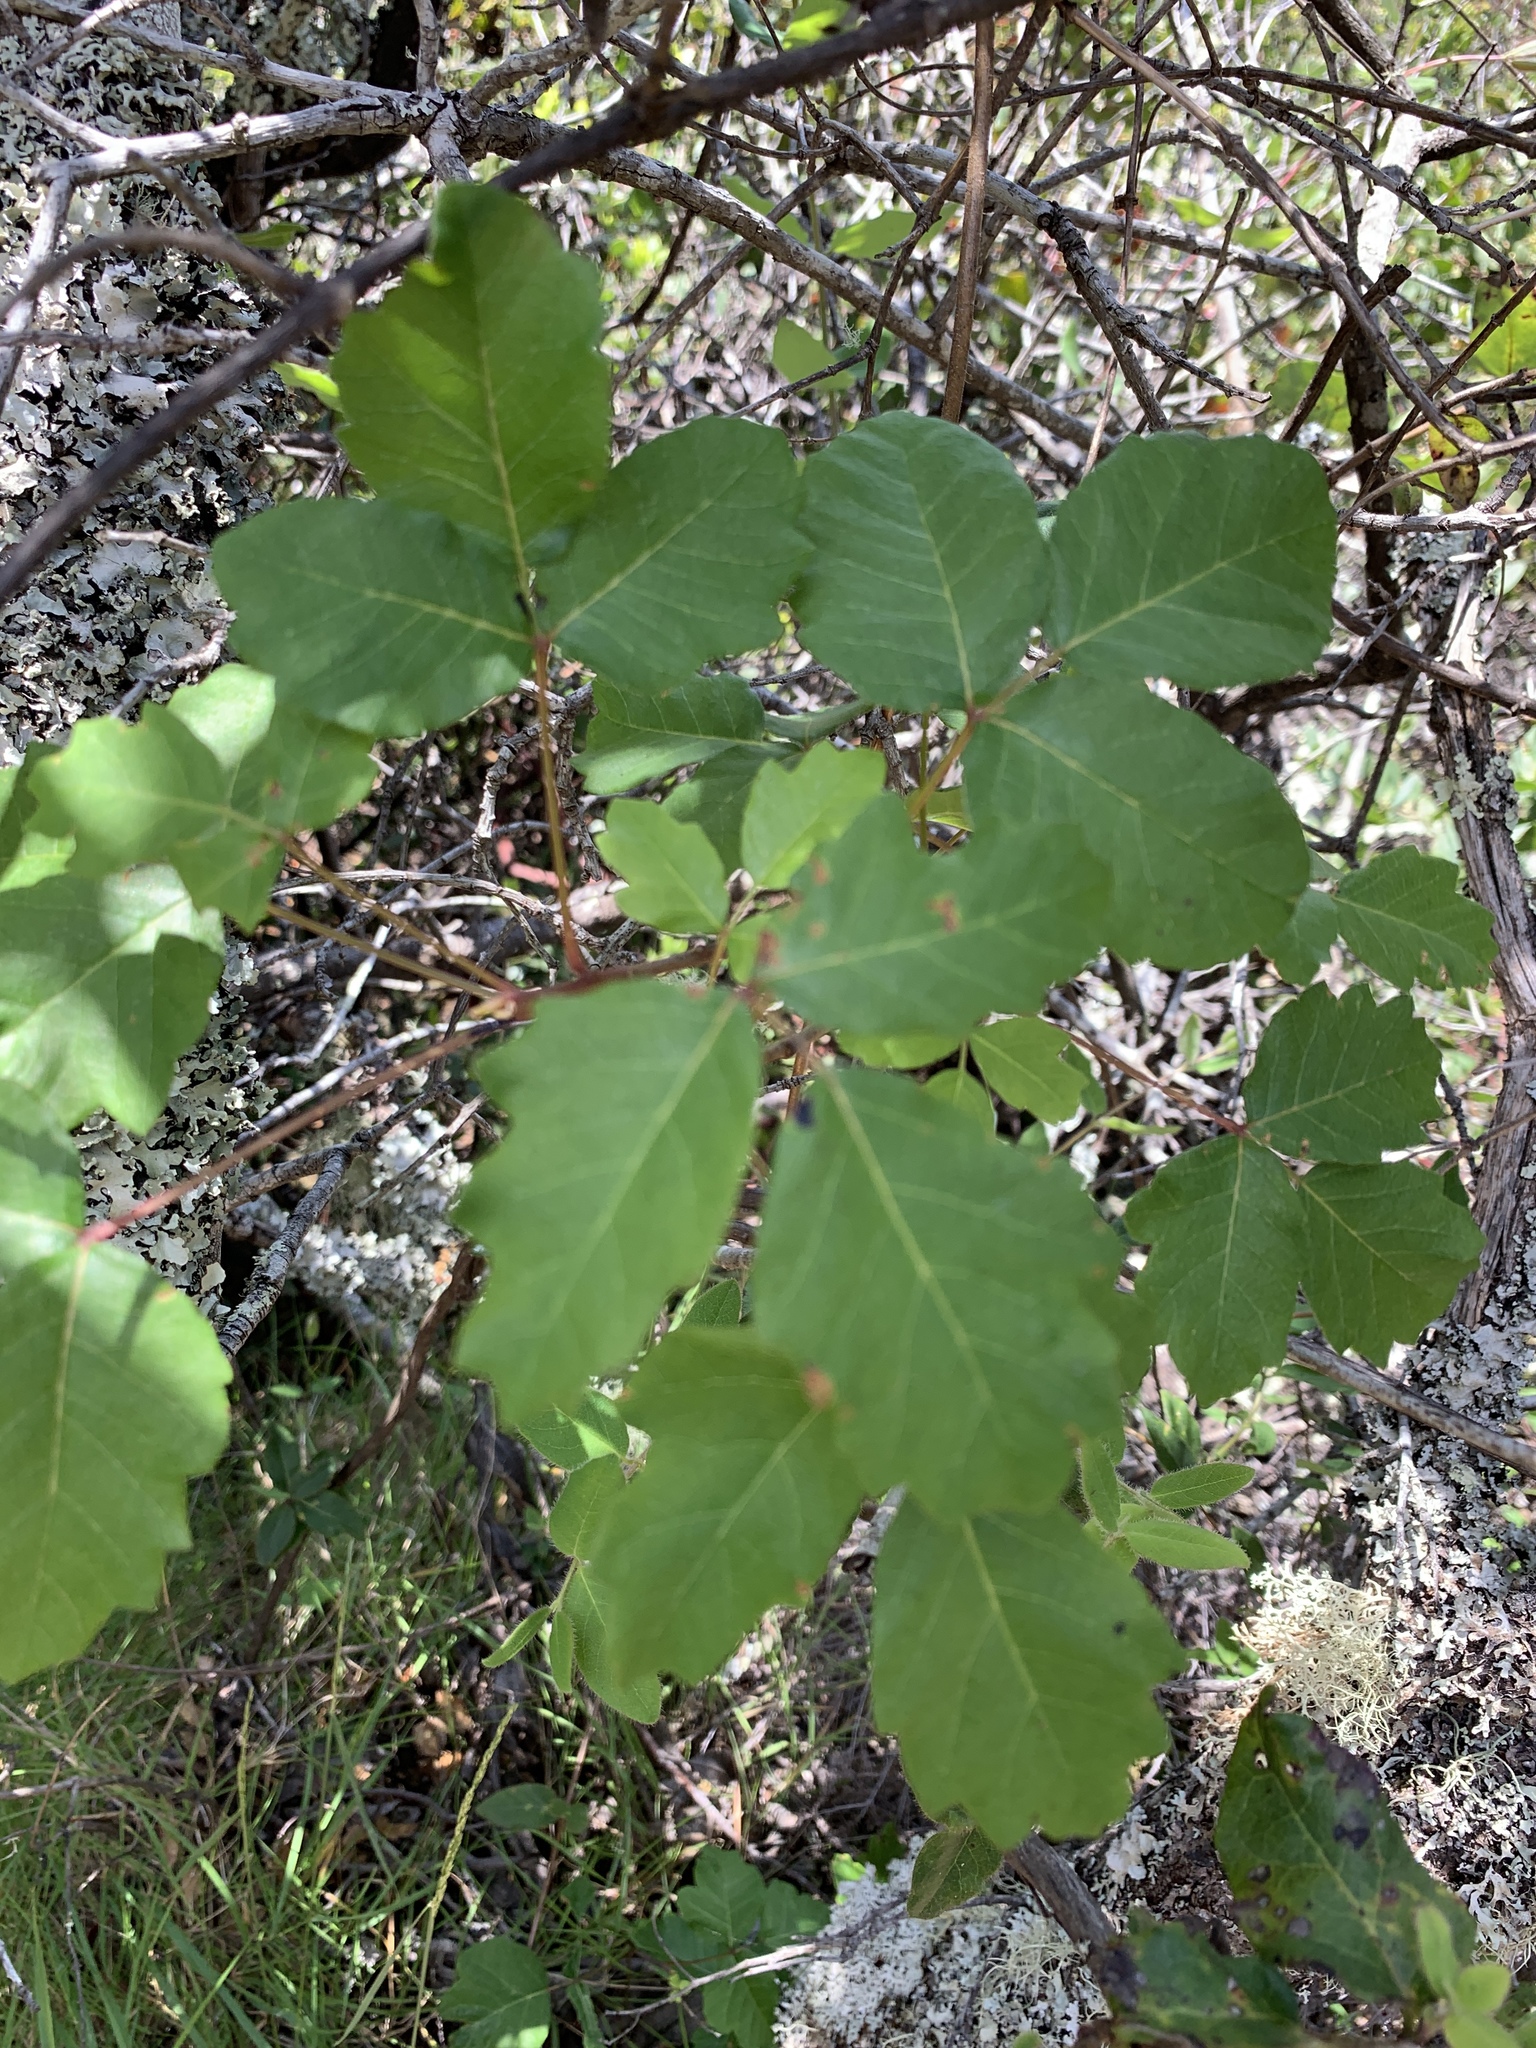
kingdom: Plantae
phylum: Tracheophyta
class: Magnoliopsida
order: Sapindales
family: Anacardiaceae
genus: Toxicodendron
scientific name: Toxicodendron diversilobum
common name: Pacific poison-oak
